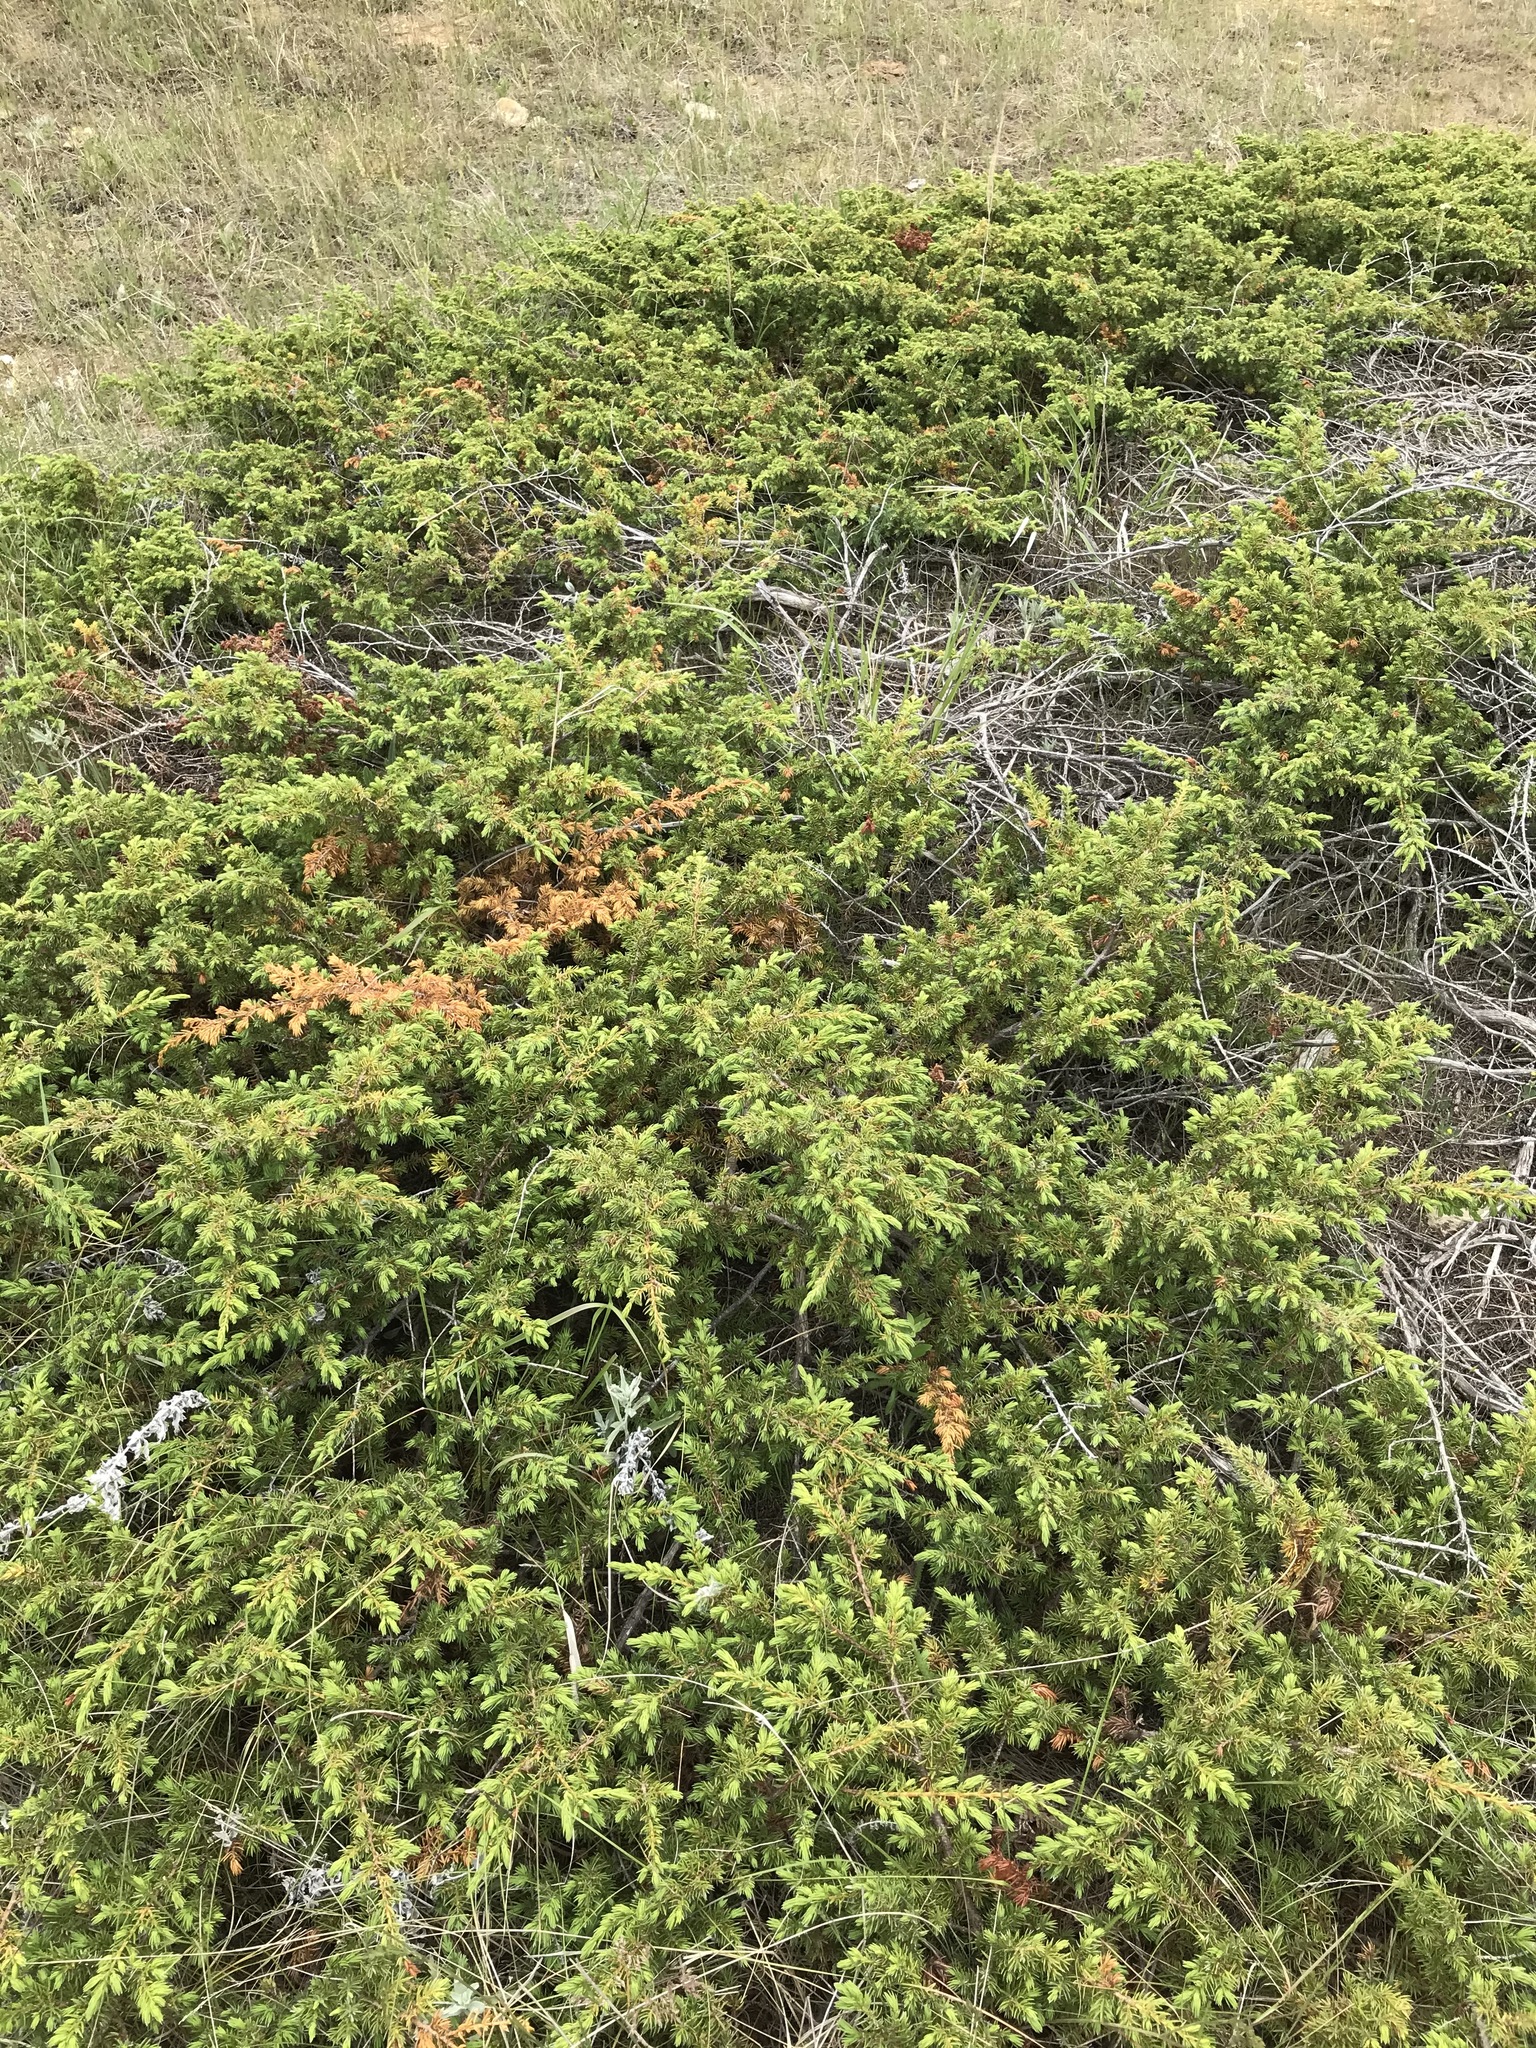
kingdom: Plantae
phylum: Tracheophyta
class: Pinopsida
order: Pinales
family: Cupressaceae
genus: Juniperus
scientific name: Juniperus communis
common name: Common juniper
